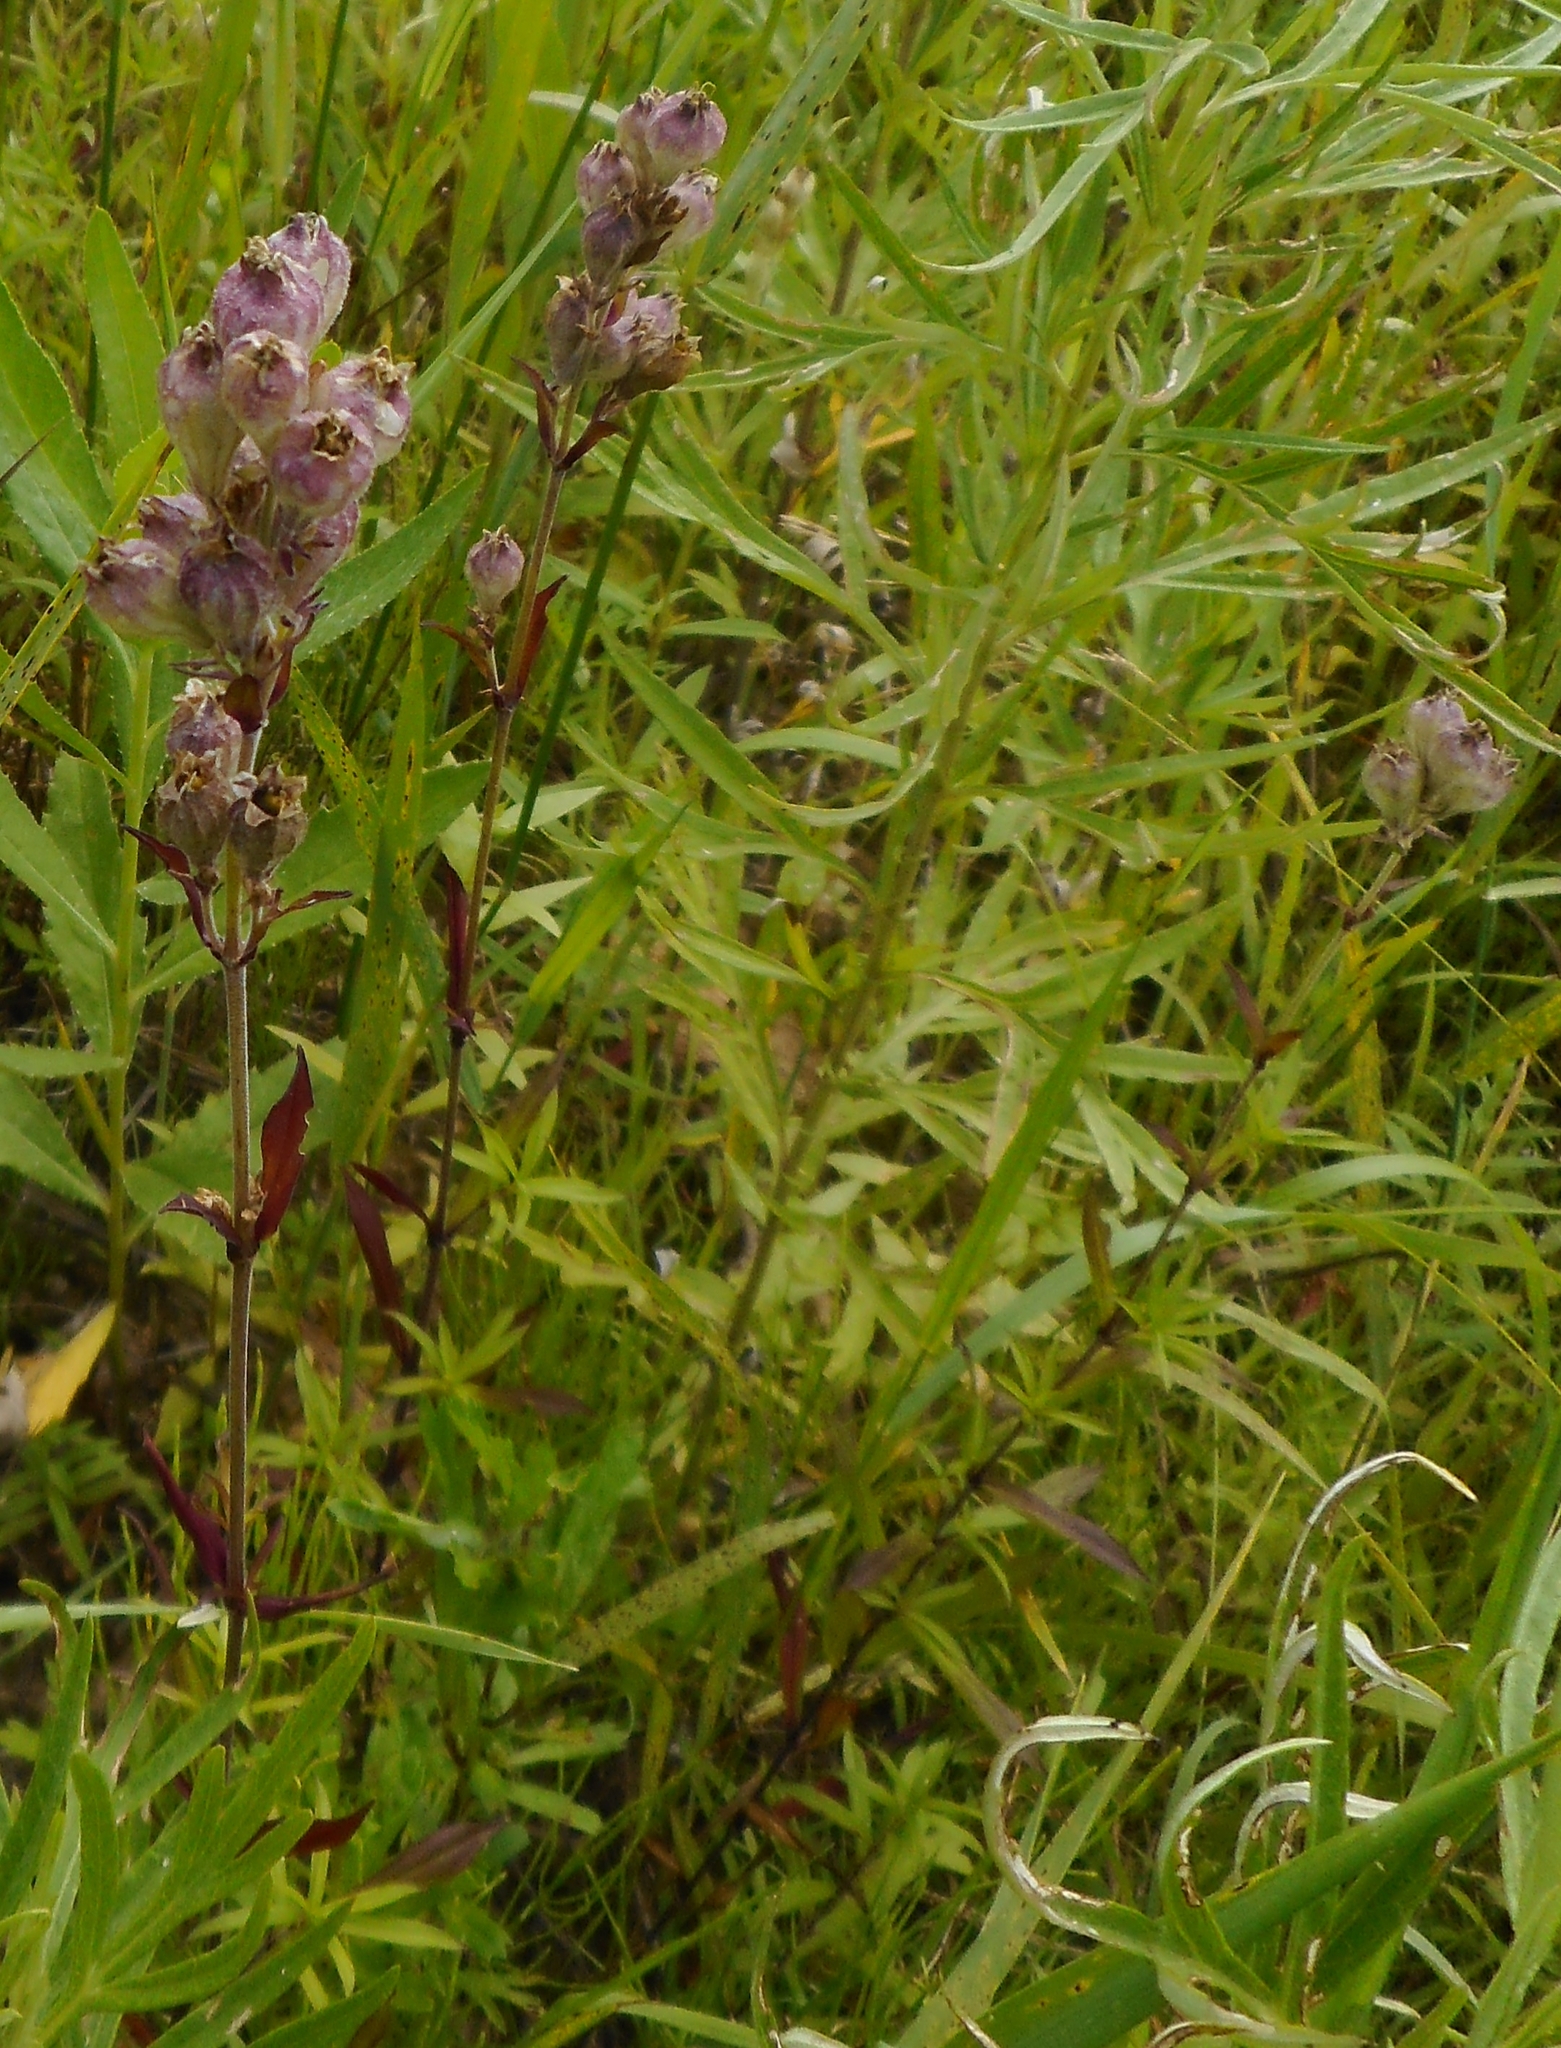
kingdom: Plantae
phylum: Tracheophyta
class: Magnoliopsida
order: Caryophyllales
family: Caryophyllaceae
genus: Silene
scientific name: Silene amoena
